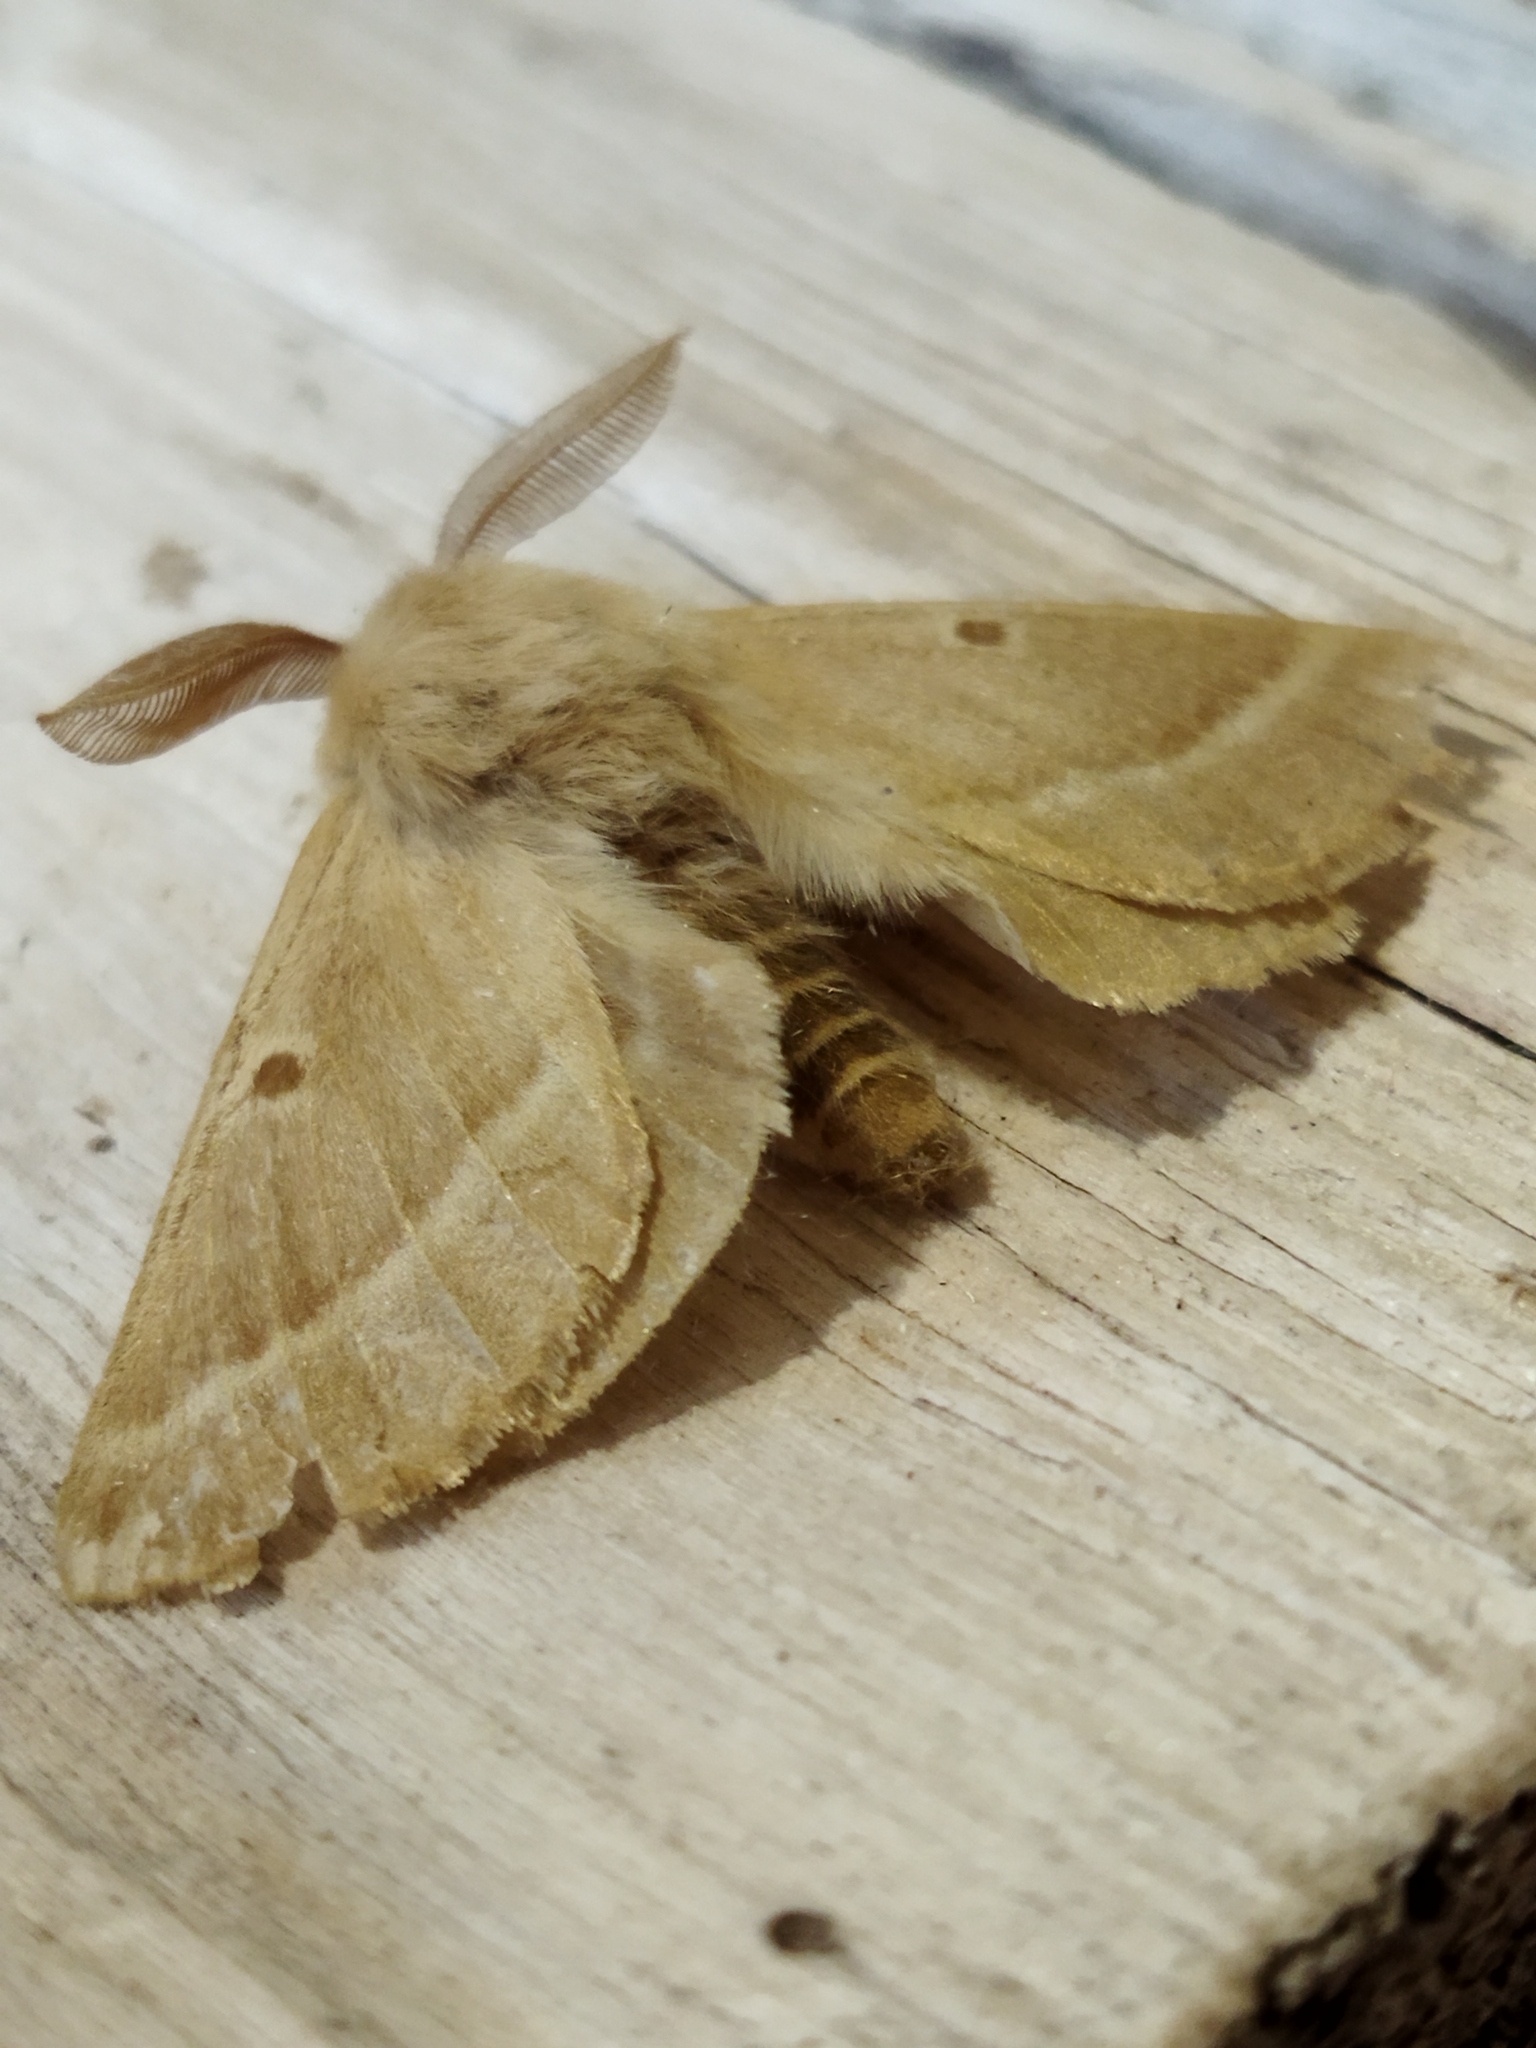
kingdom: Animalia
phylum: Arthropoda
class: Insecta
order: Lepidoptera
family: Brahmaeidae
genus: Lemonia
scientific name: Lemonia balcanica
